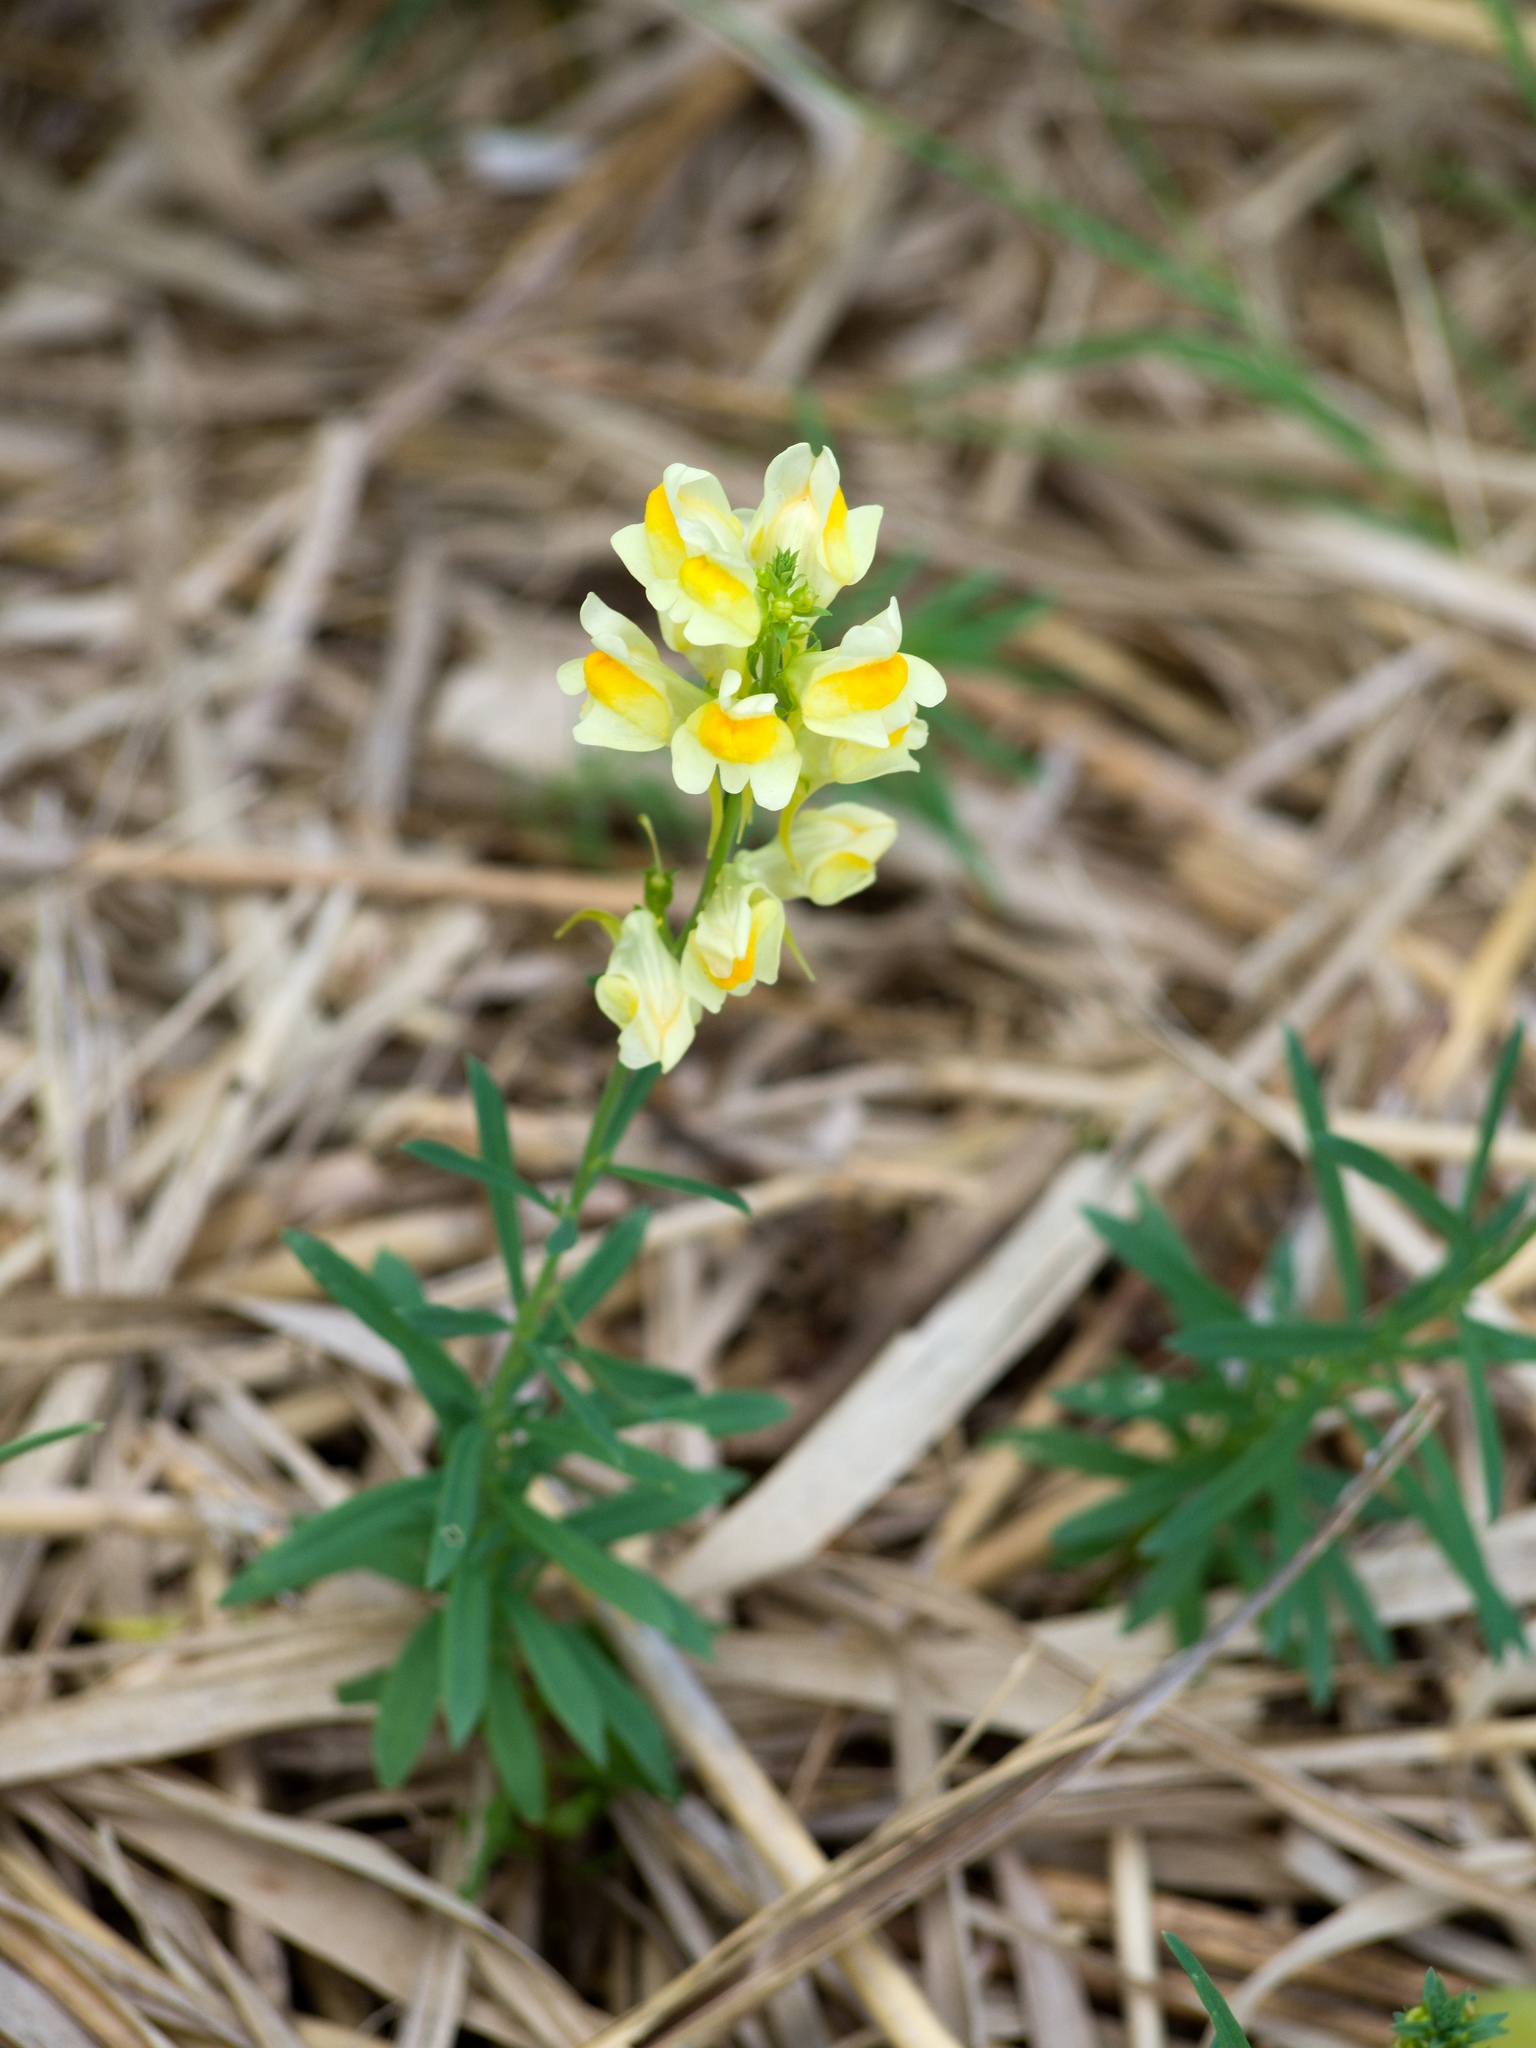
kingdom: Plantae
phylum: Tracheophyta
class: Magnoliopsida
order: Lamiales
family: Plantaginaceae
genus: Linaria
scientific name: Linaria vulgaris
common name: Butter and eggs
